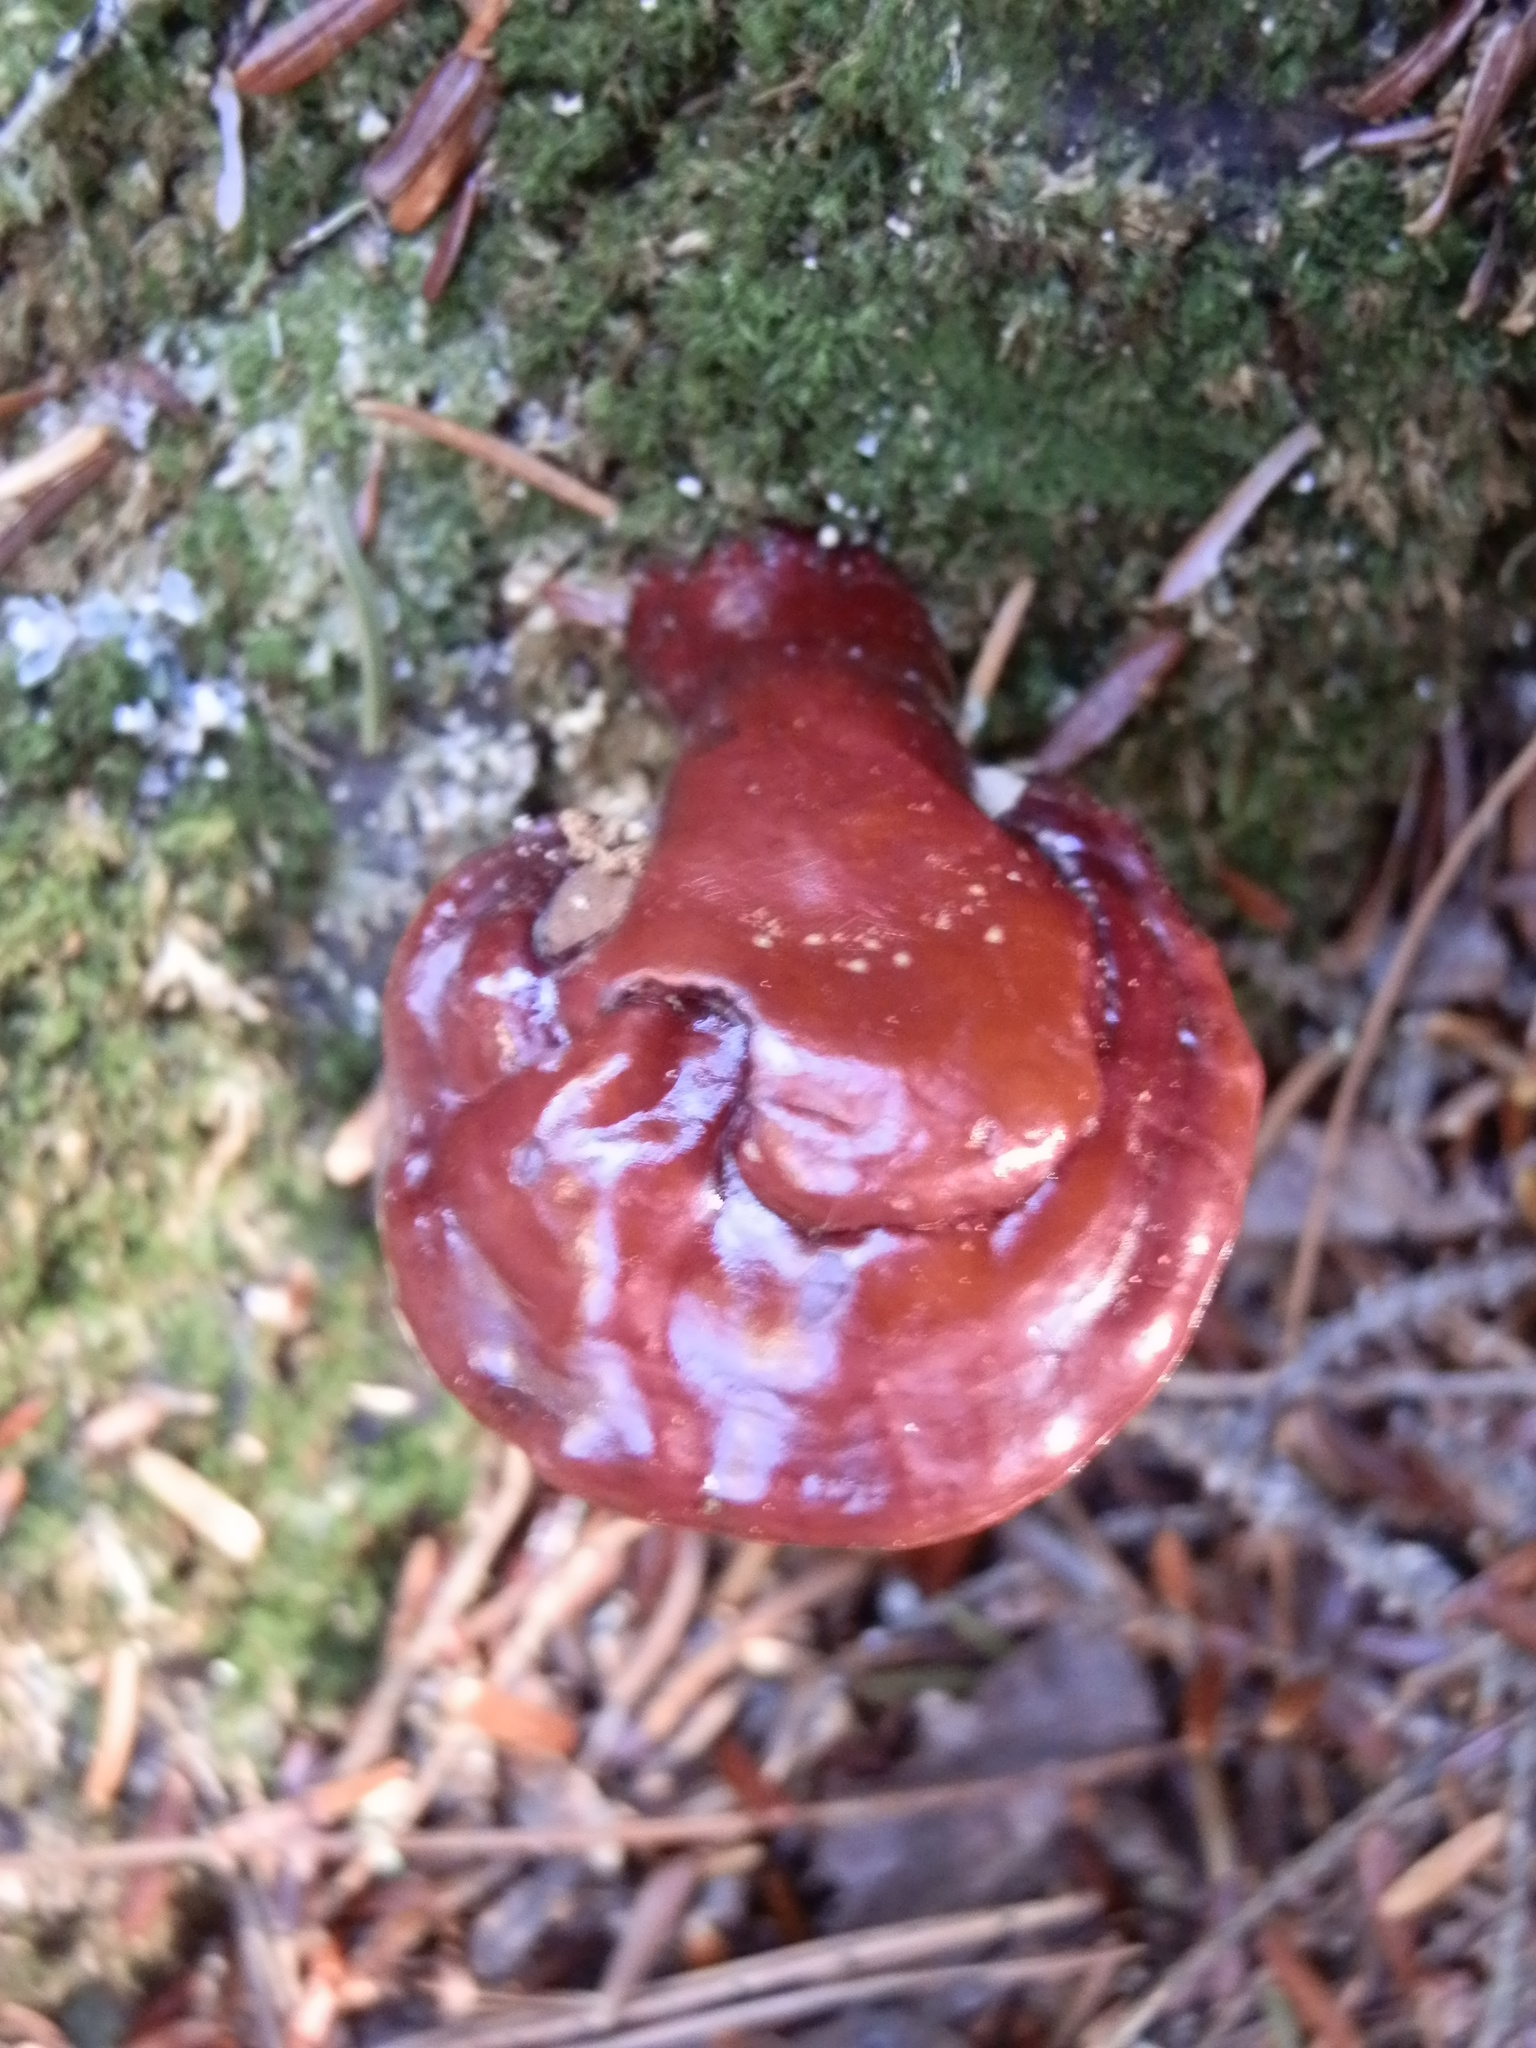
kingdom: Fungi
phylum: Basidiomycota
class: Agaricomycetes
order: Polyporales
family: Polyporaceae
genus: Ganoderma
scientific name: Ganoderma tsugae
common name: Hemlock varnish shelf
